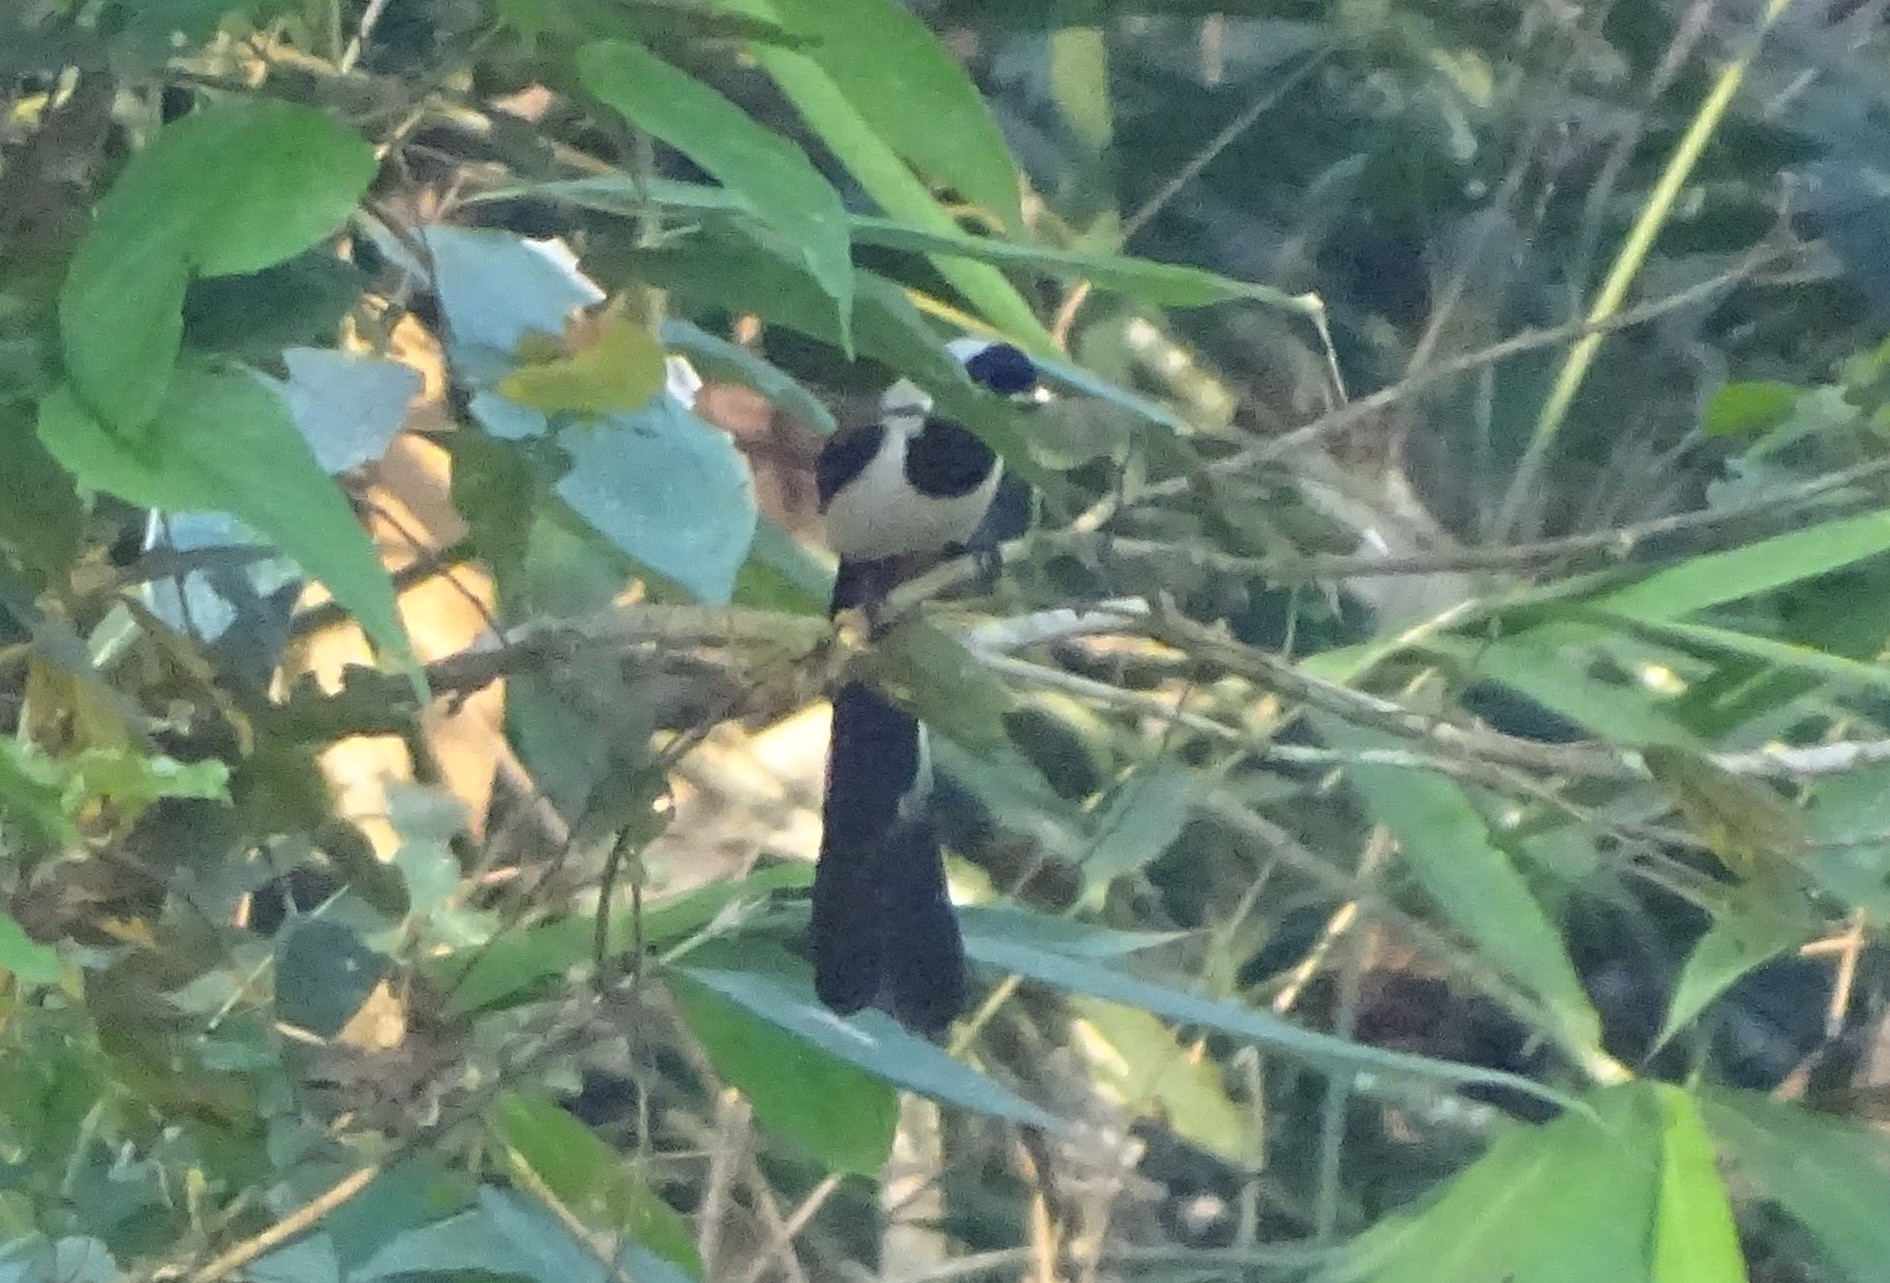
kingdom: Animalia
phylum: Chordata
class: Aves
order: Passeriformes
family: Corvidae
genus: Dendrocitta
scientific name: Dendrocitta leucogastra
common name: White-bellied treepie
